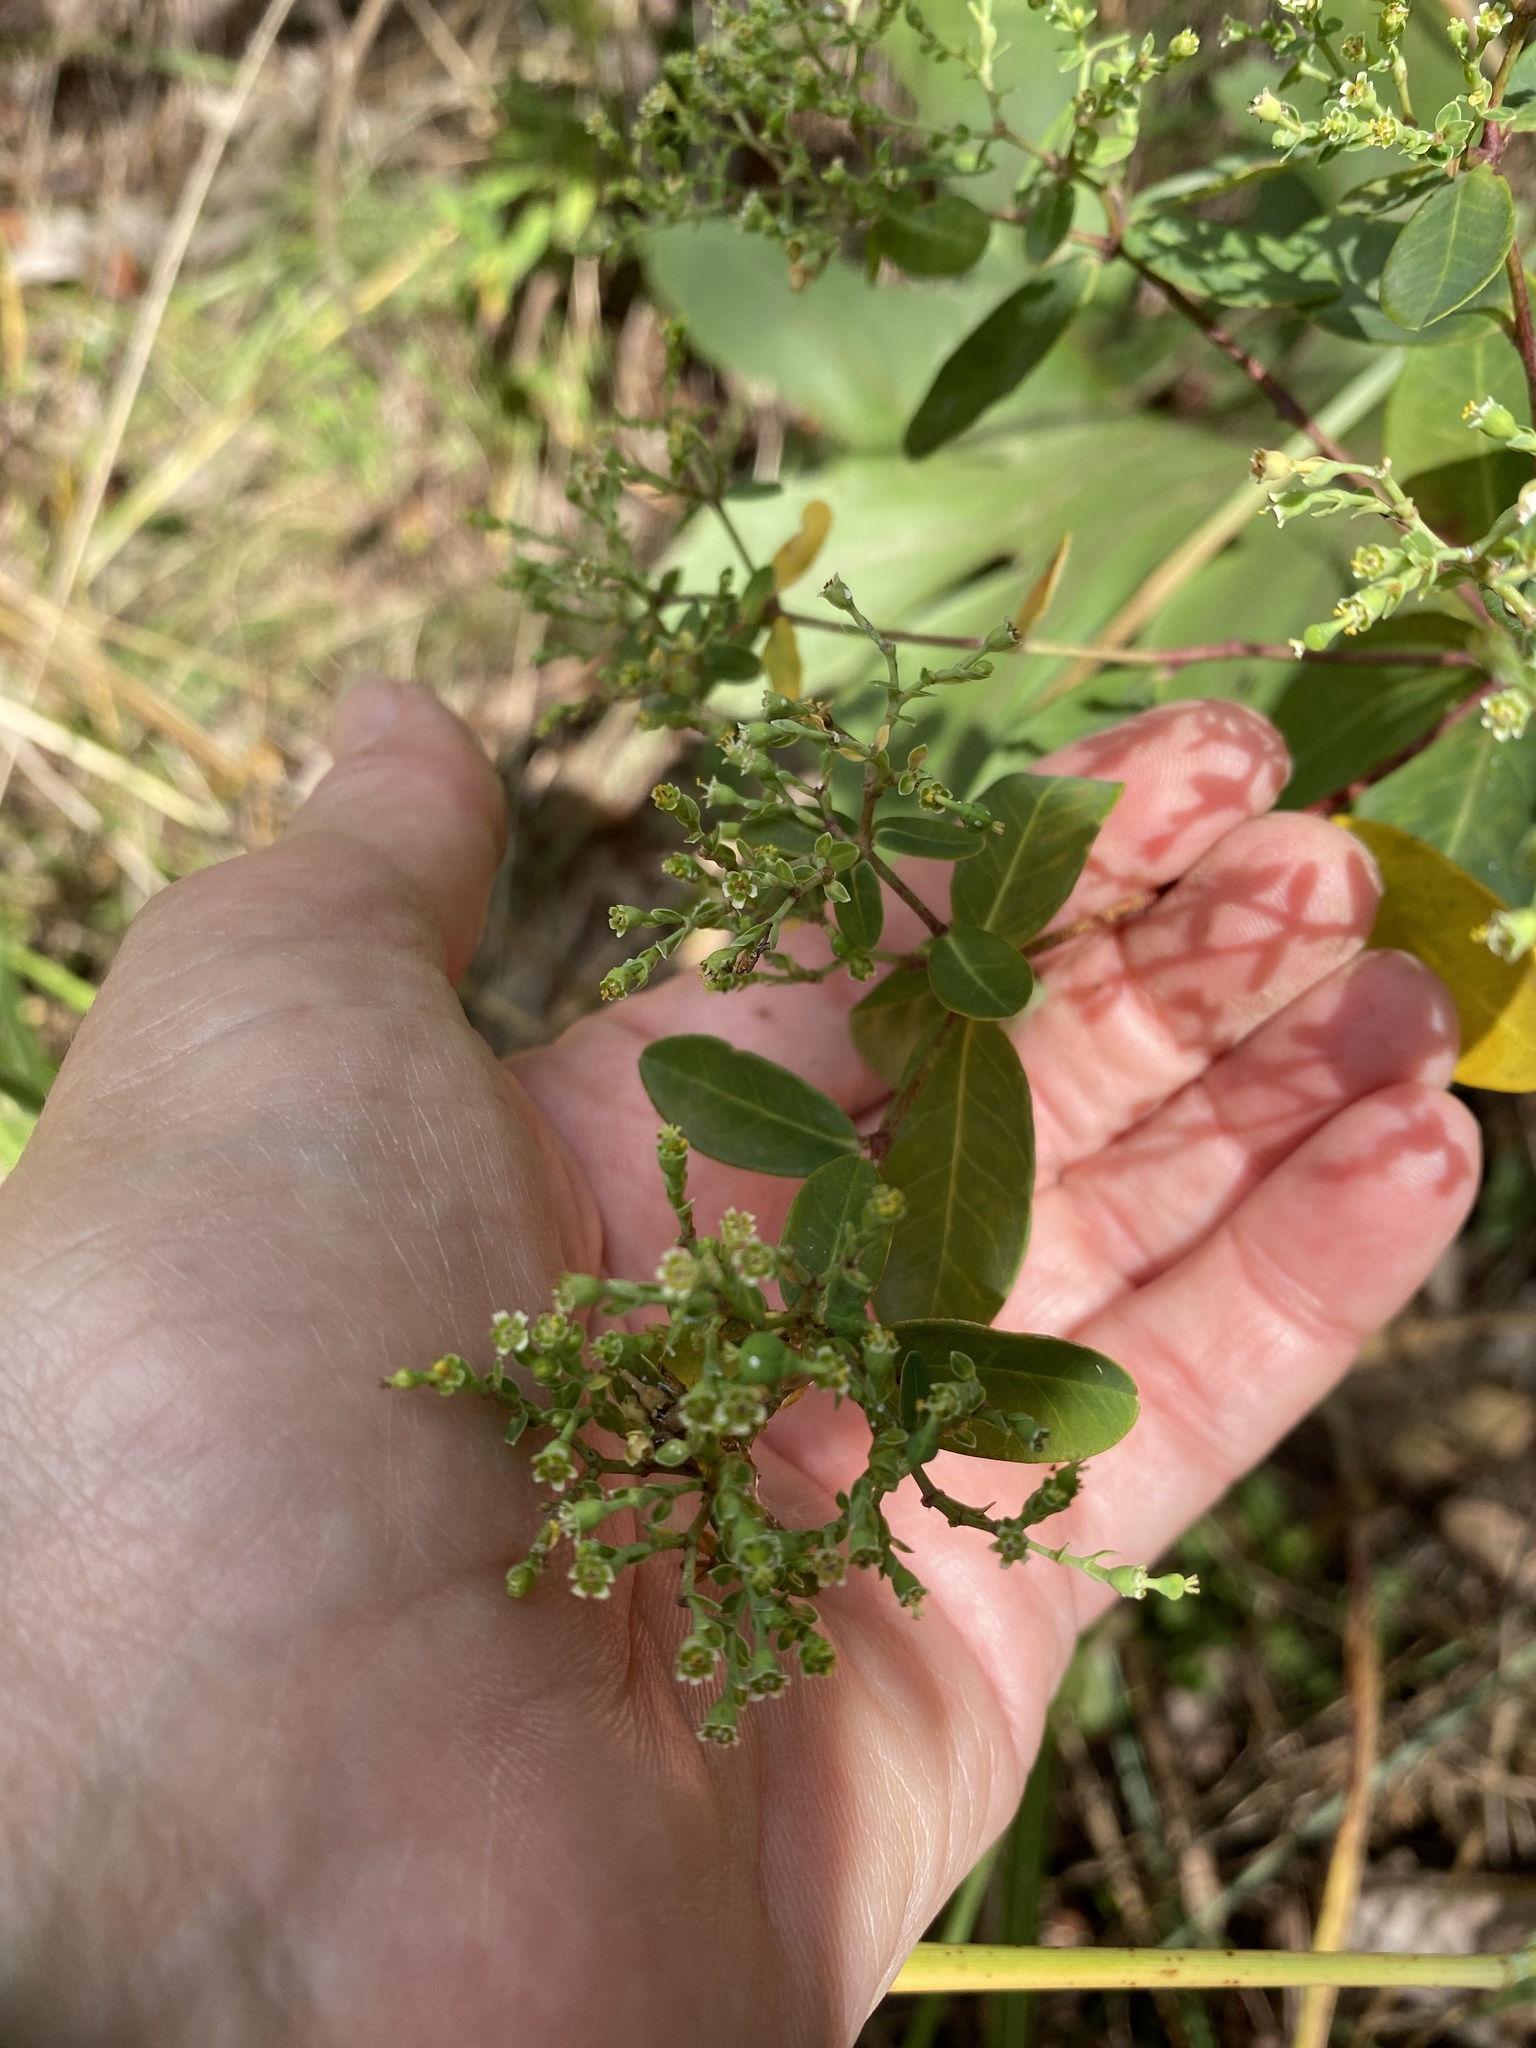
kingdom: Plantae
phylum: Tracheophyta
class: Magnoliopsida
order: Malpighiales
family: Euphorbiaceae
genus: Euphorbia
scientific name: Euphorbia pubentissima
